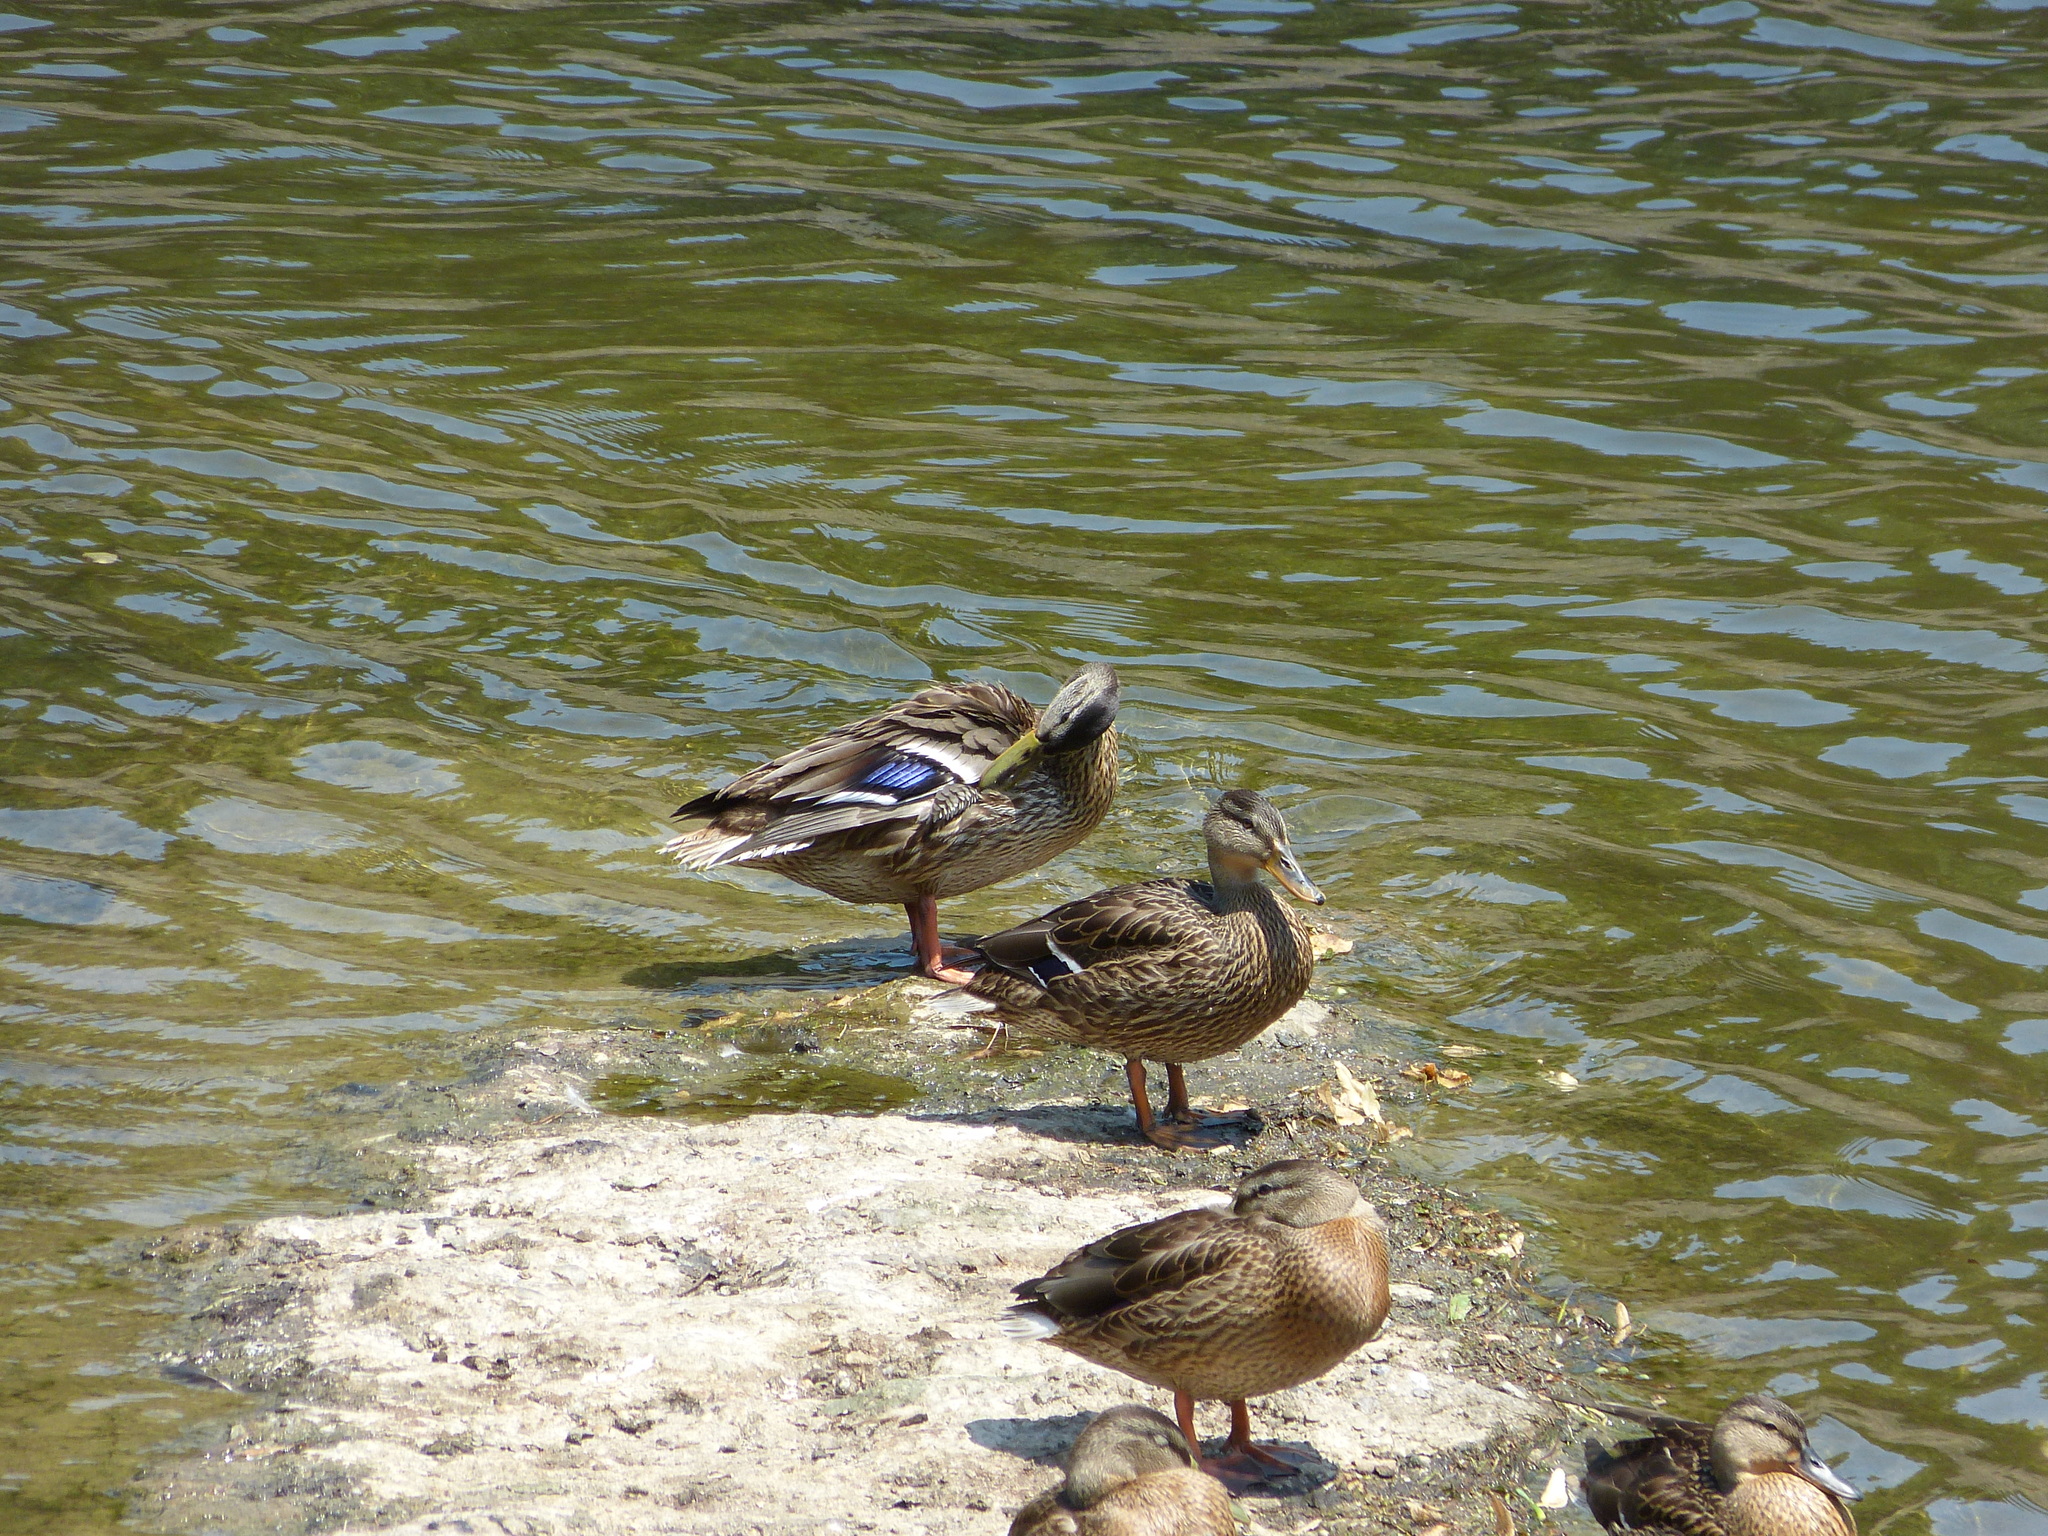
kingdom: Animalia
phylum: Chordata
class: Aves
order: Anseriformes
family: Anatidae
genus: Anas
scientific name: Anas platyrhynchos
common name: Mallard
